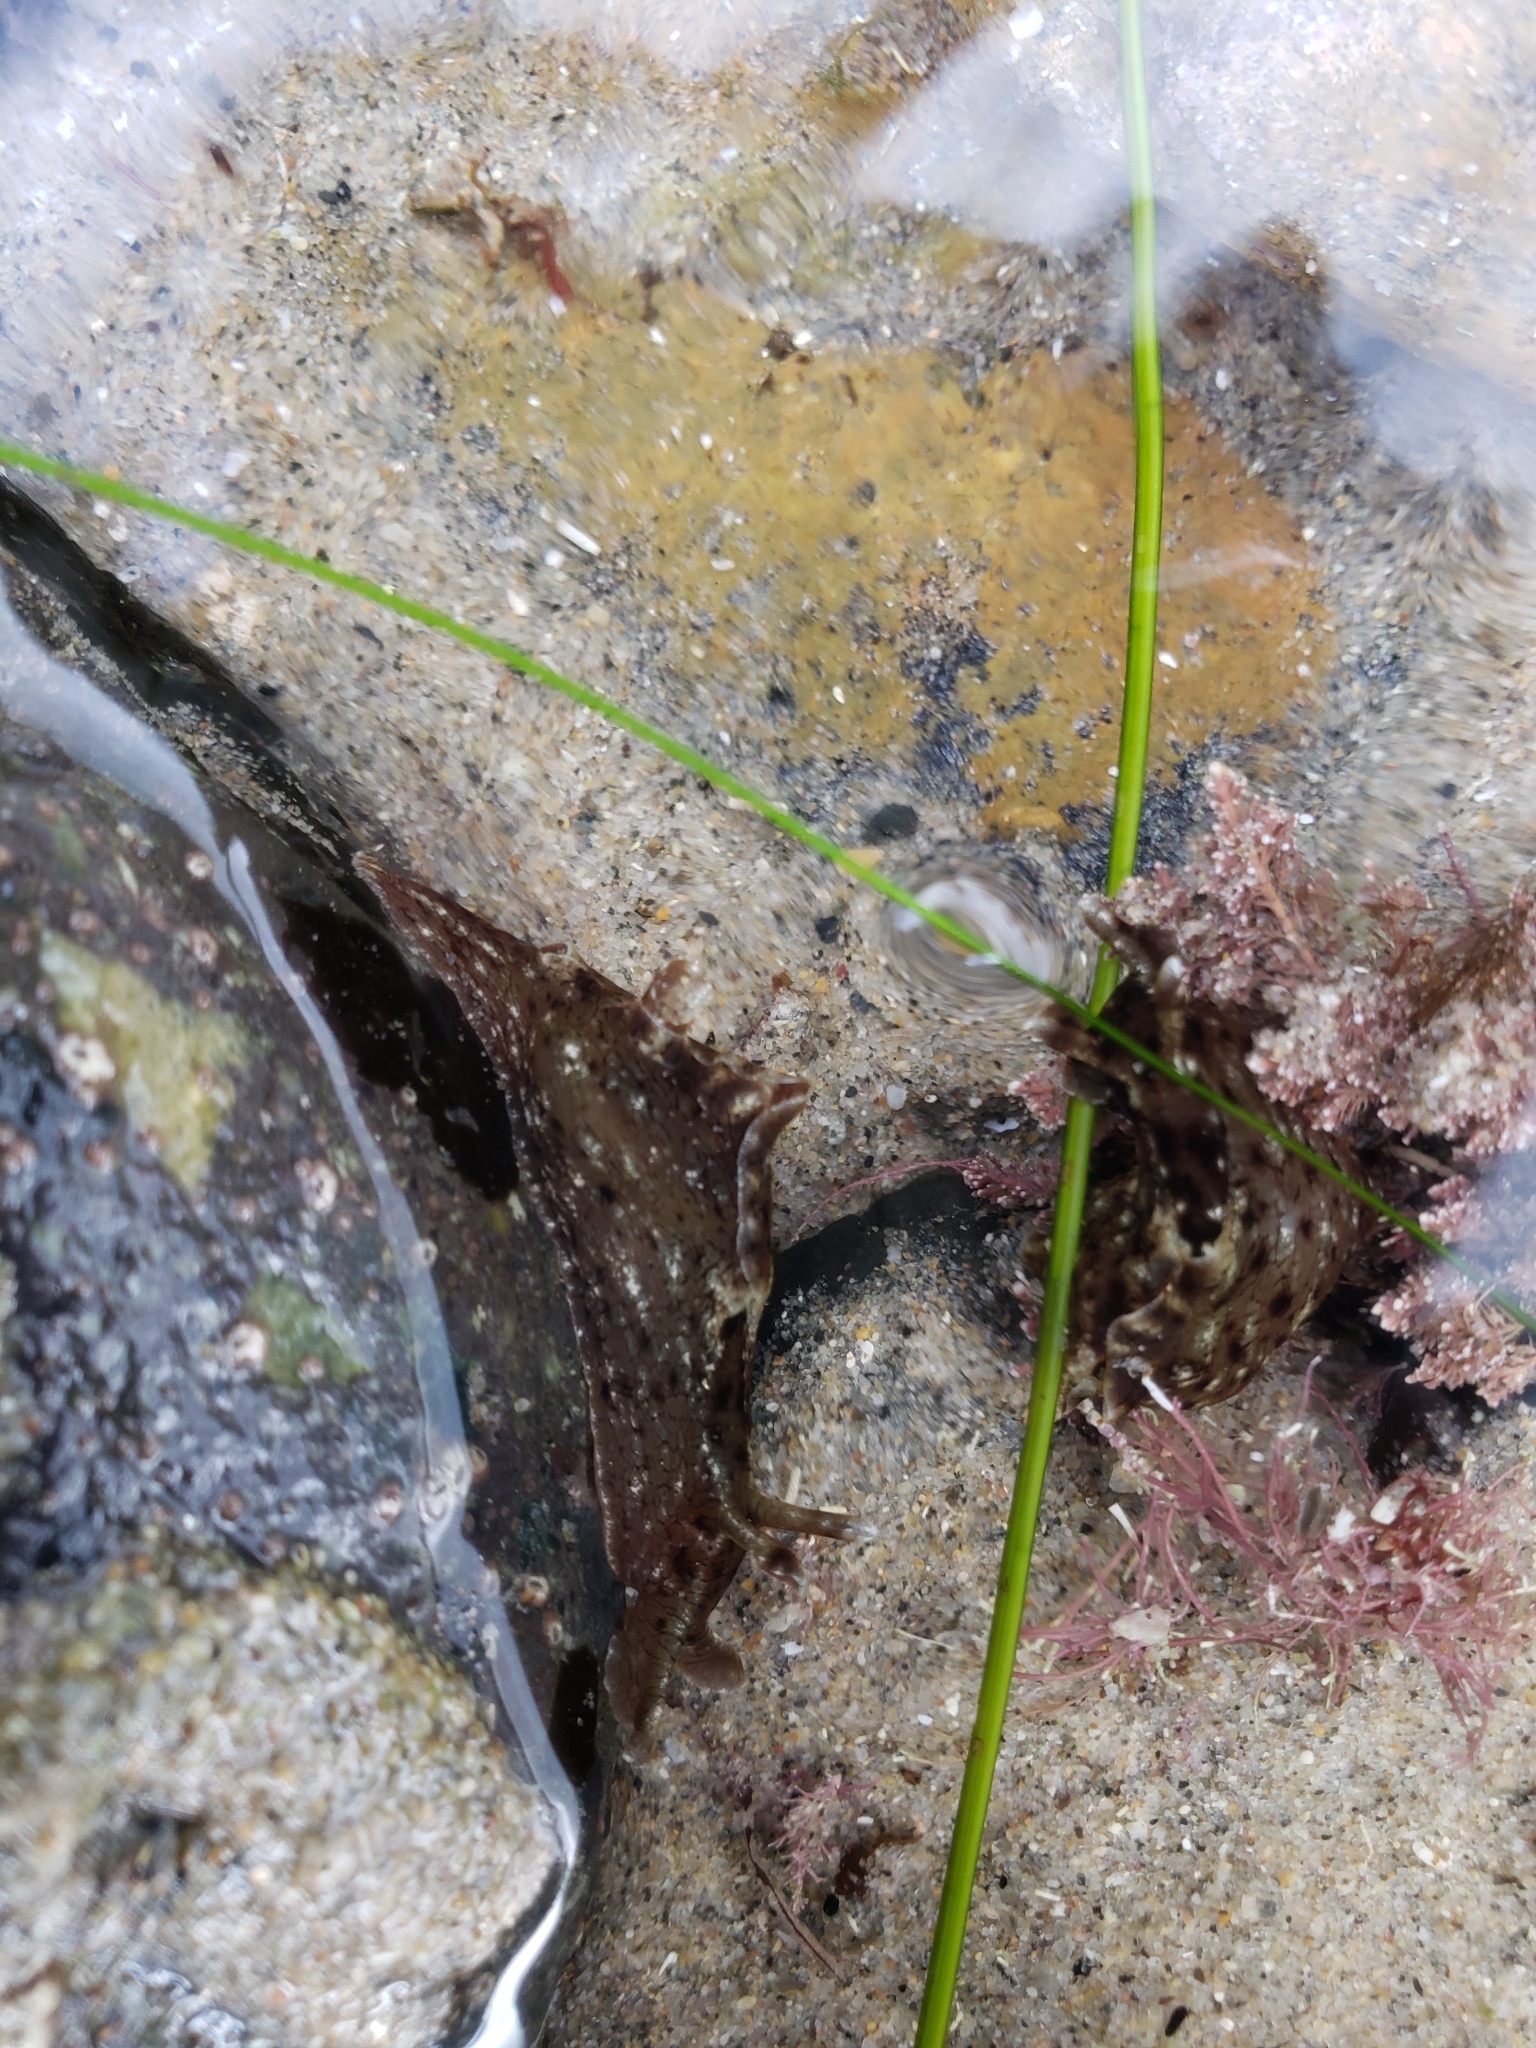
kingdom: Animalia
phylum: Mollusca
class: Gastropoda
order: Aplysiida
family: Aplysiidae
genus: Aplysia
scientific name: Aplysia californica
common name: California seahare
